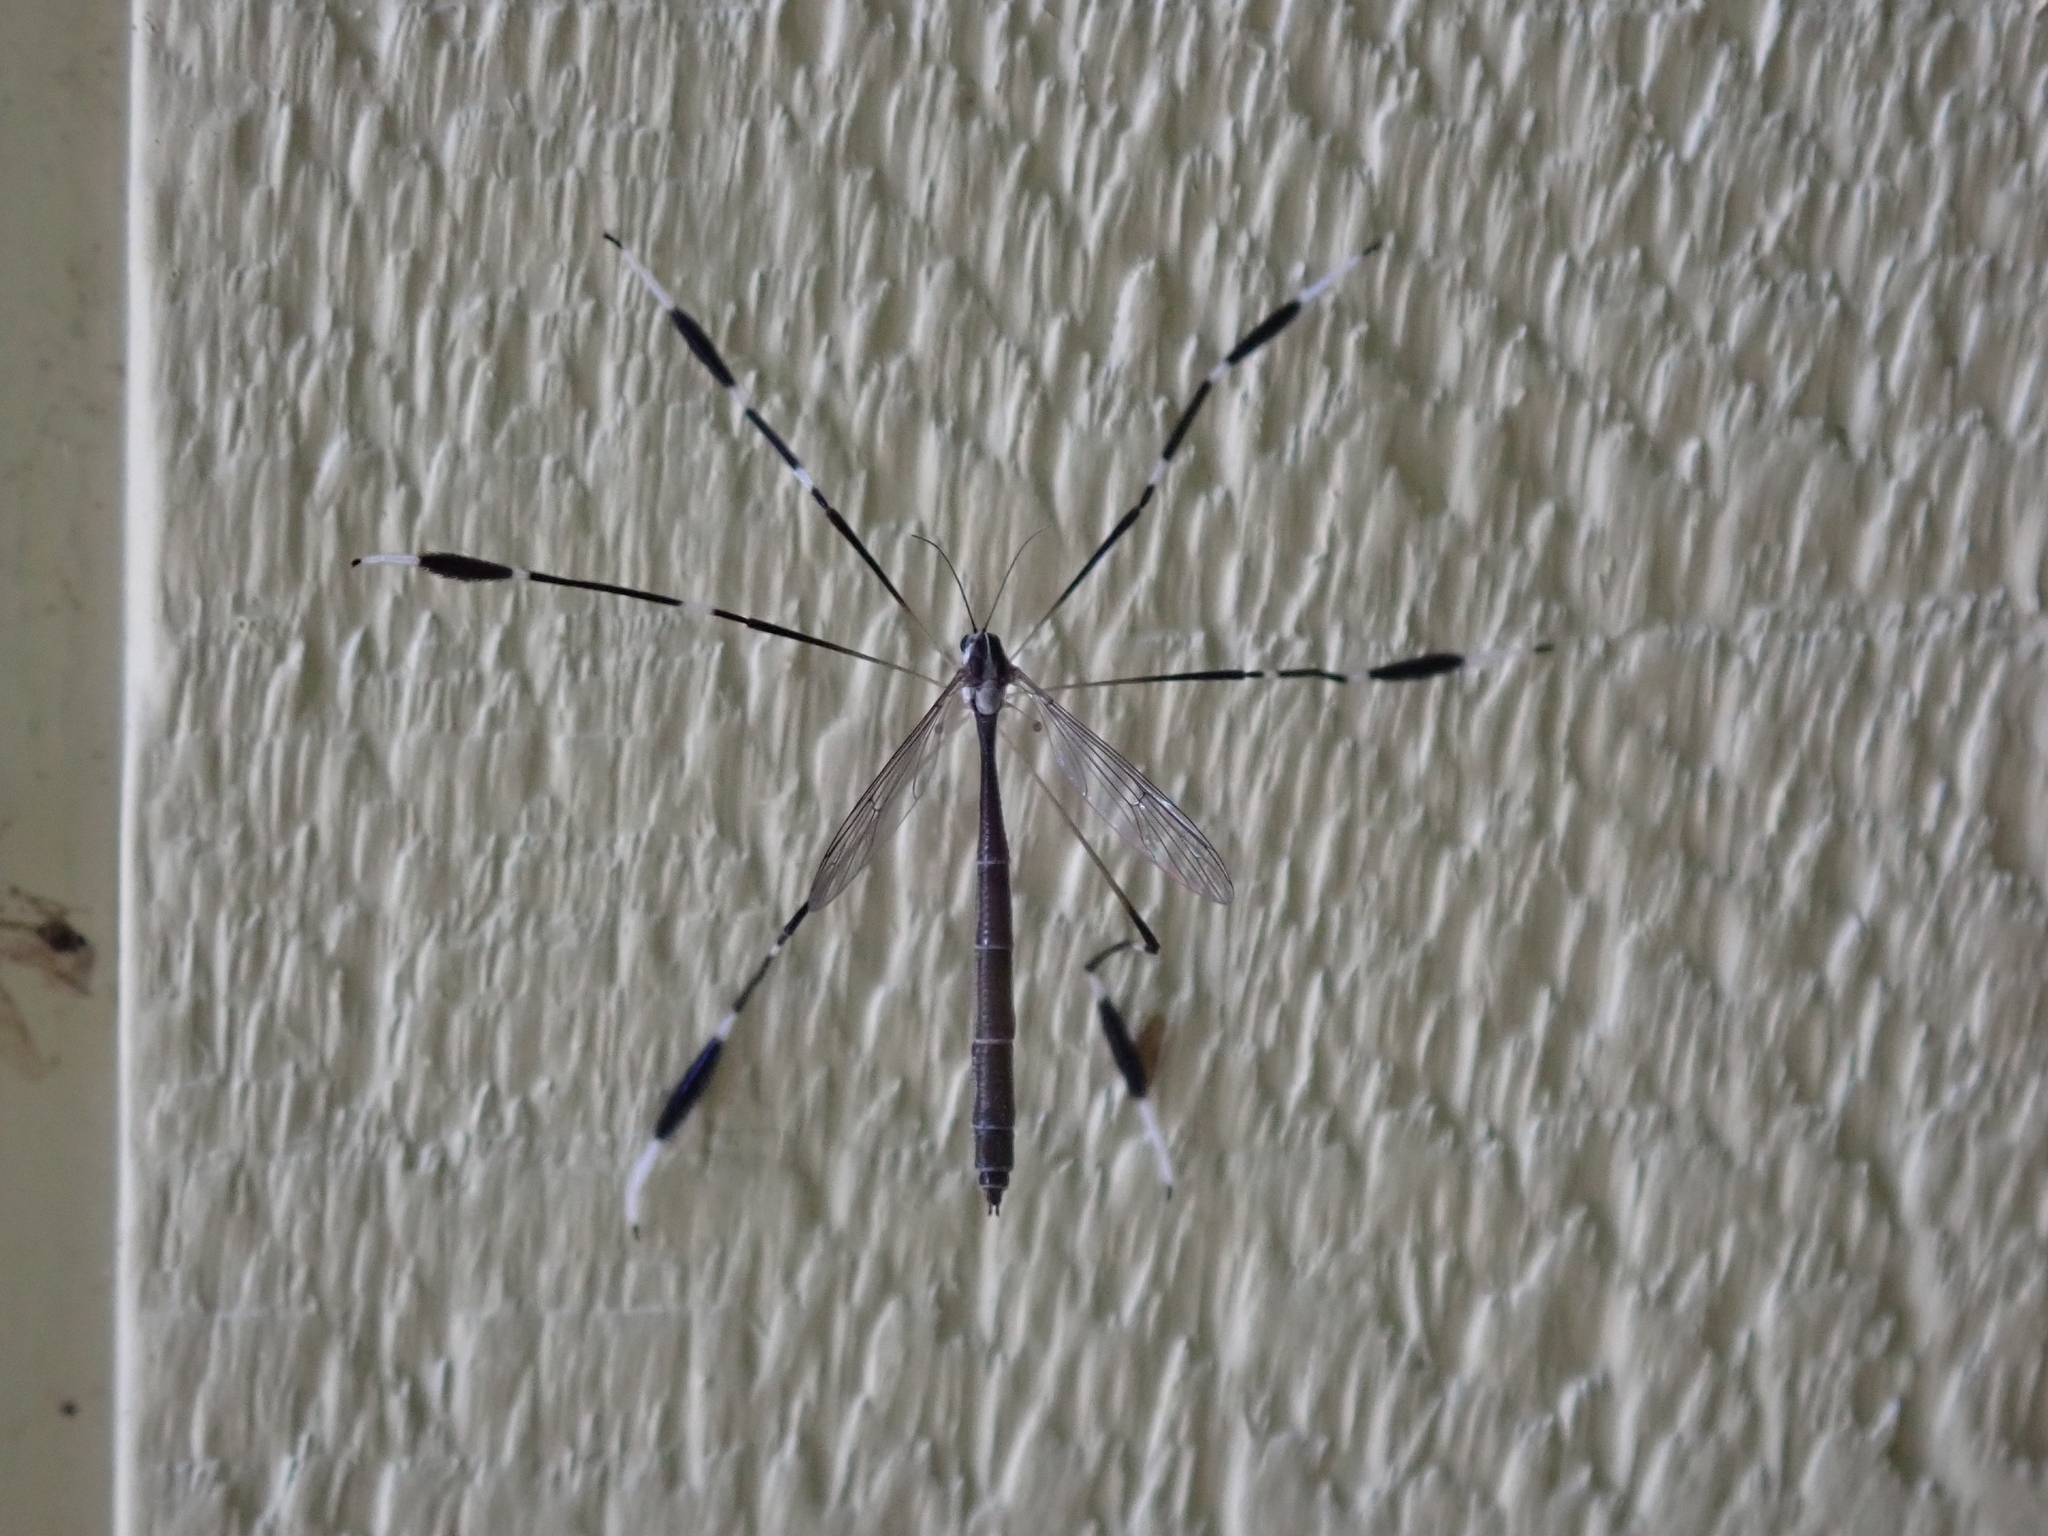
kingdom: Animalia
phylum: Arthropoda
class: Insecta
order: Diptera
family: Ptychopteridae
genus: Bittacomorpha
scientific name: Bittacomorpha clavipes
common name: Eastern phantom crane fly
